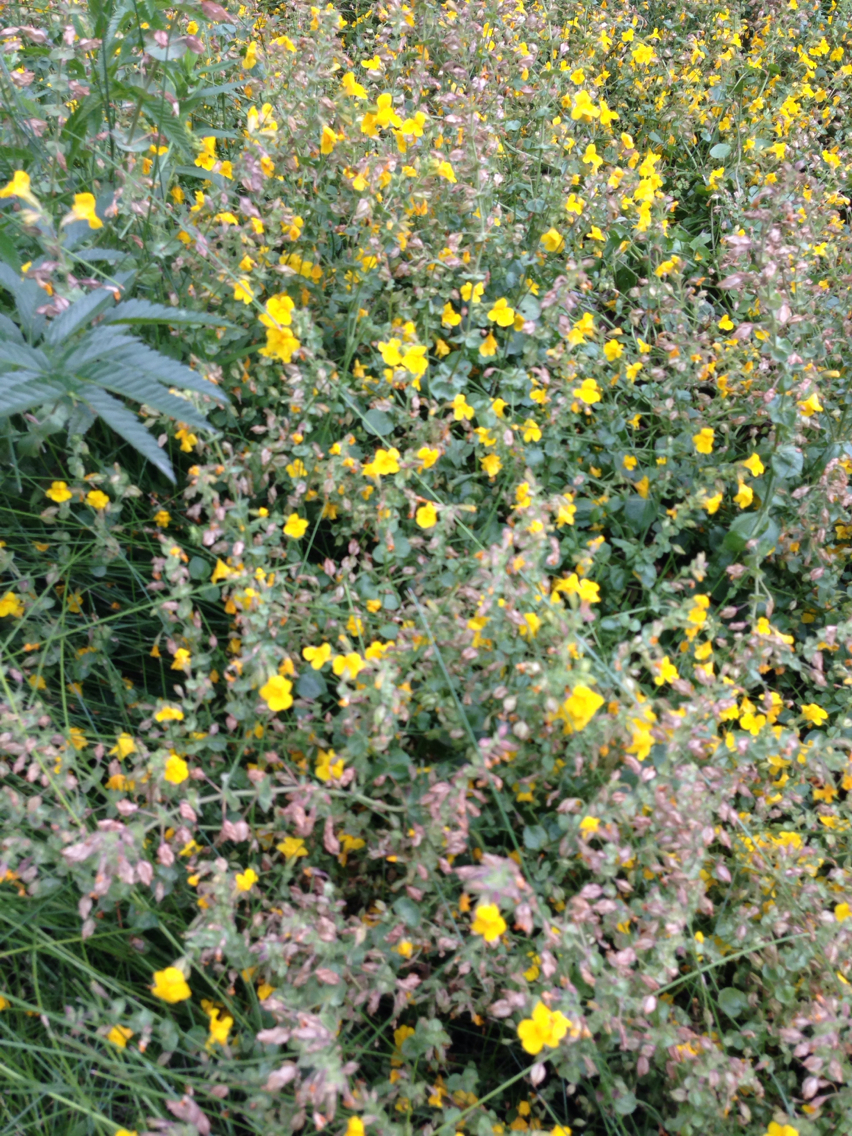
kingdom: Plantae
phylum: Tracheophyta
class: Magnoliopsida
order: Lamiales
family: Phrymaceae
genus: Erythranthe
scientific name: Erythranthe guttata
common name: Monkeyflower
